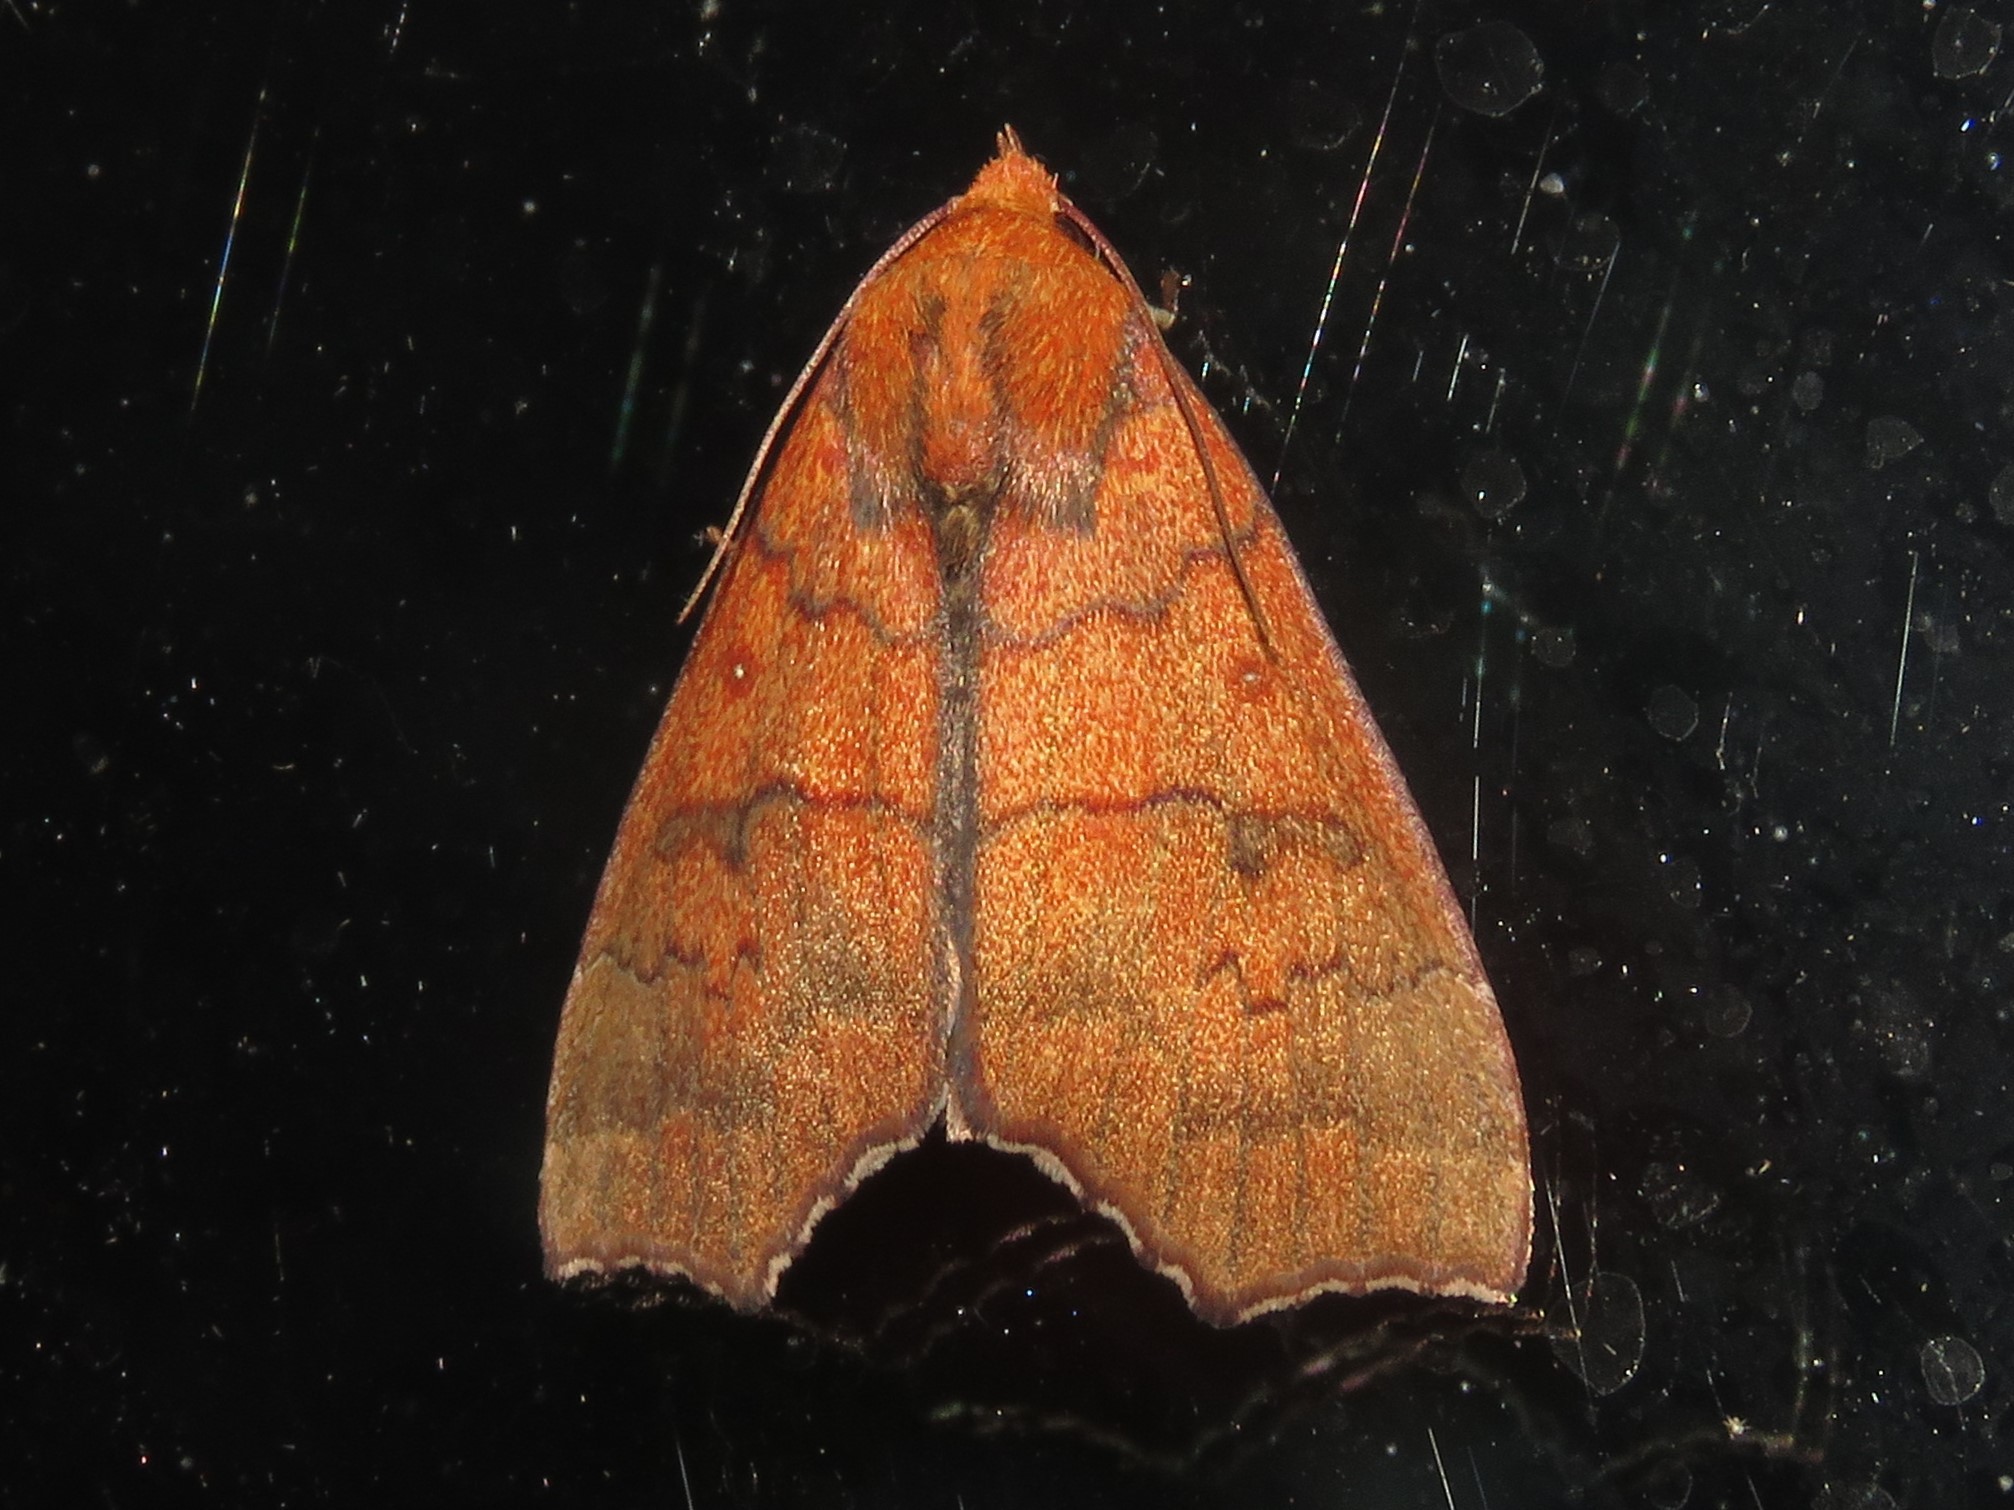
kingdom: Animalia
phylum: Arthropoda
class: Insecta
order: Lepidoptera
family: Erebidae
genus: Rusicada
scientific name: Rusicada privata
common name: Hibiscus leaf caterpillar moth
